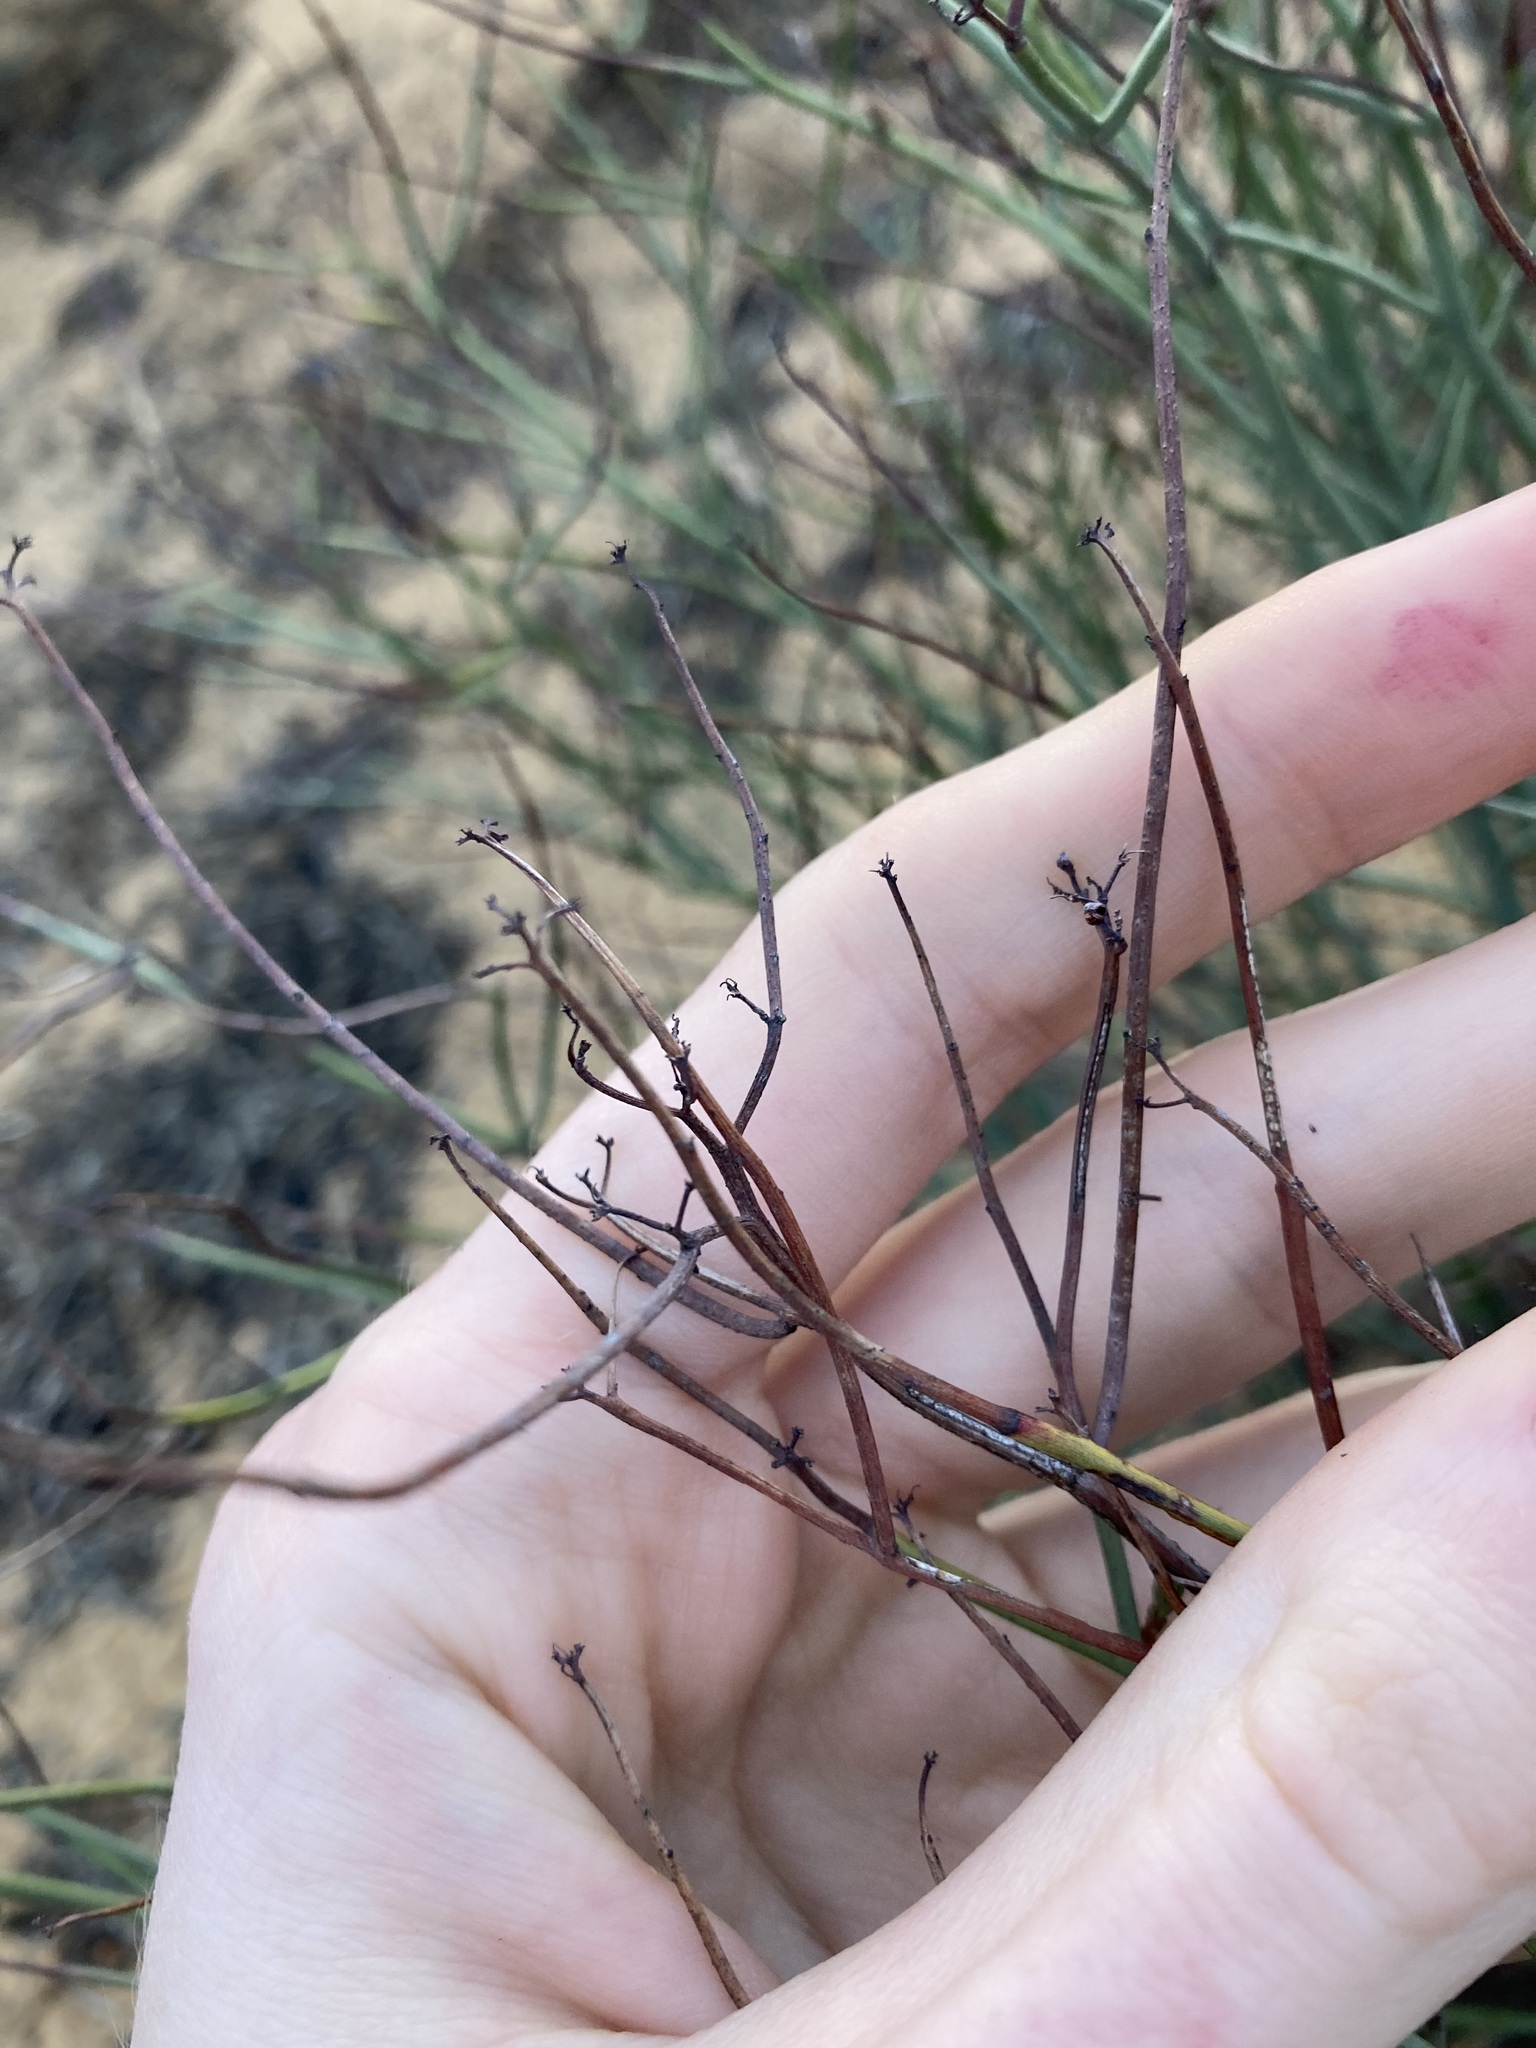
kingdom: Plantae
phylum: Tracheophyta
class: Magnoliopsida
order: Dilleniales
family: Dilleniaceae
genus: Hibbertia
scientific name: Hibbertia conspicua
